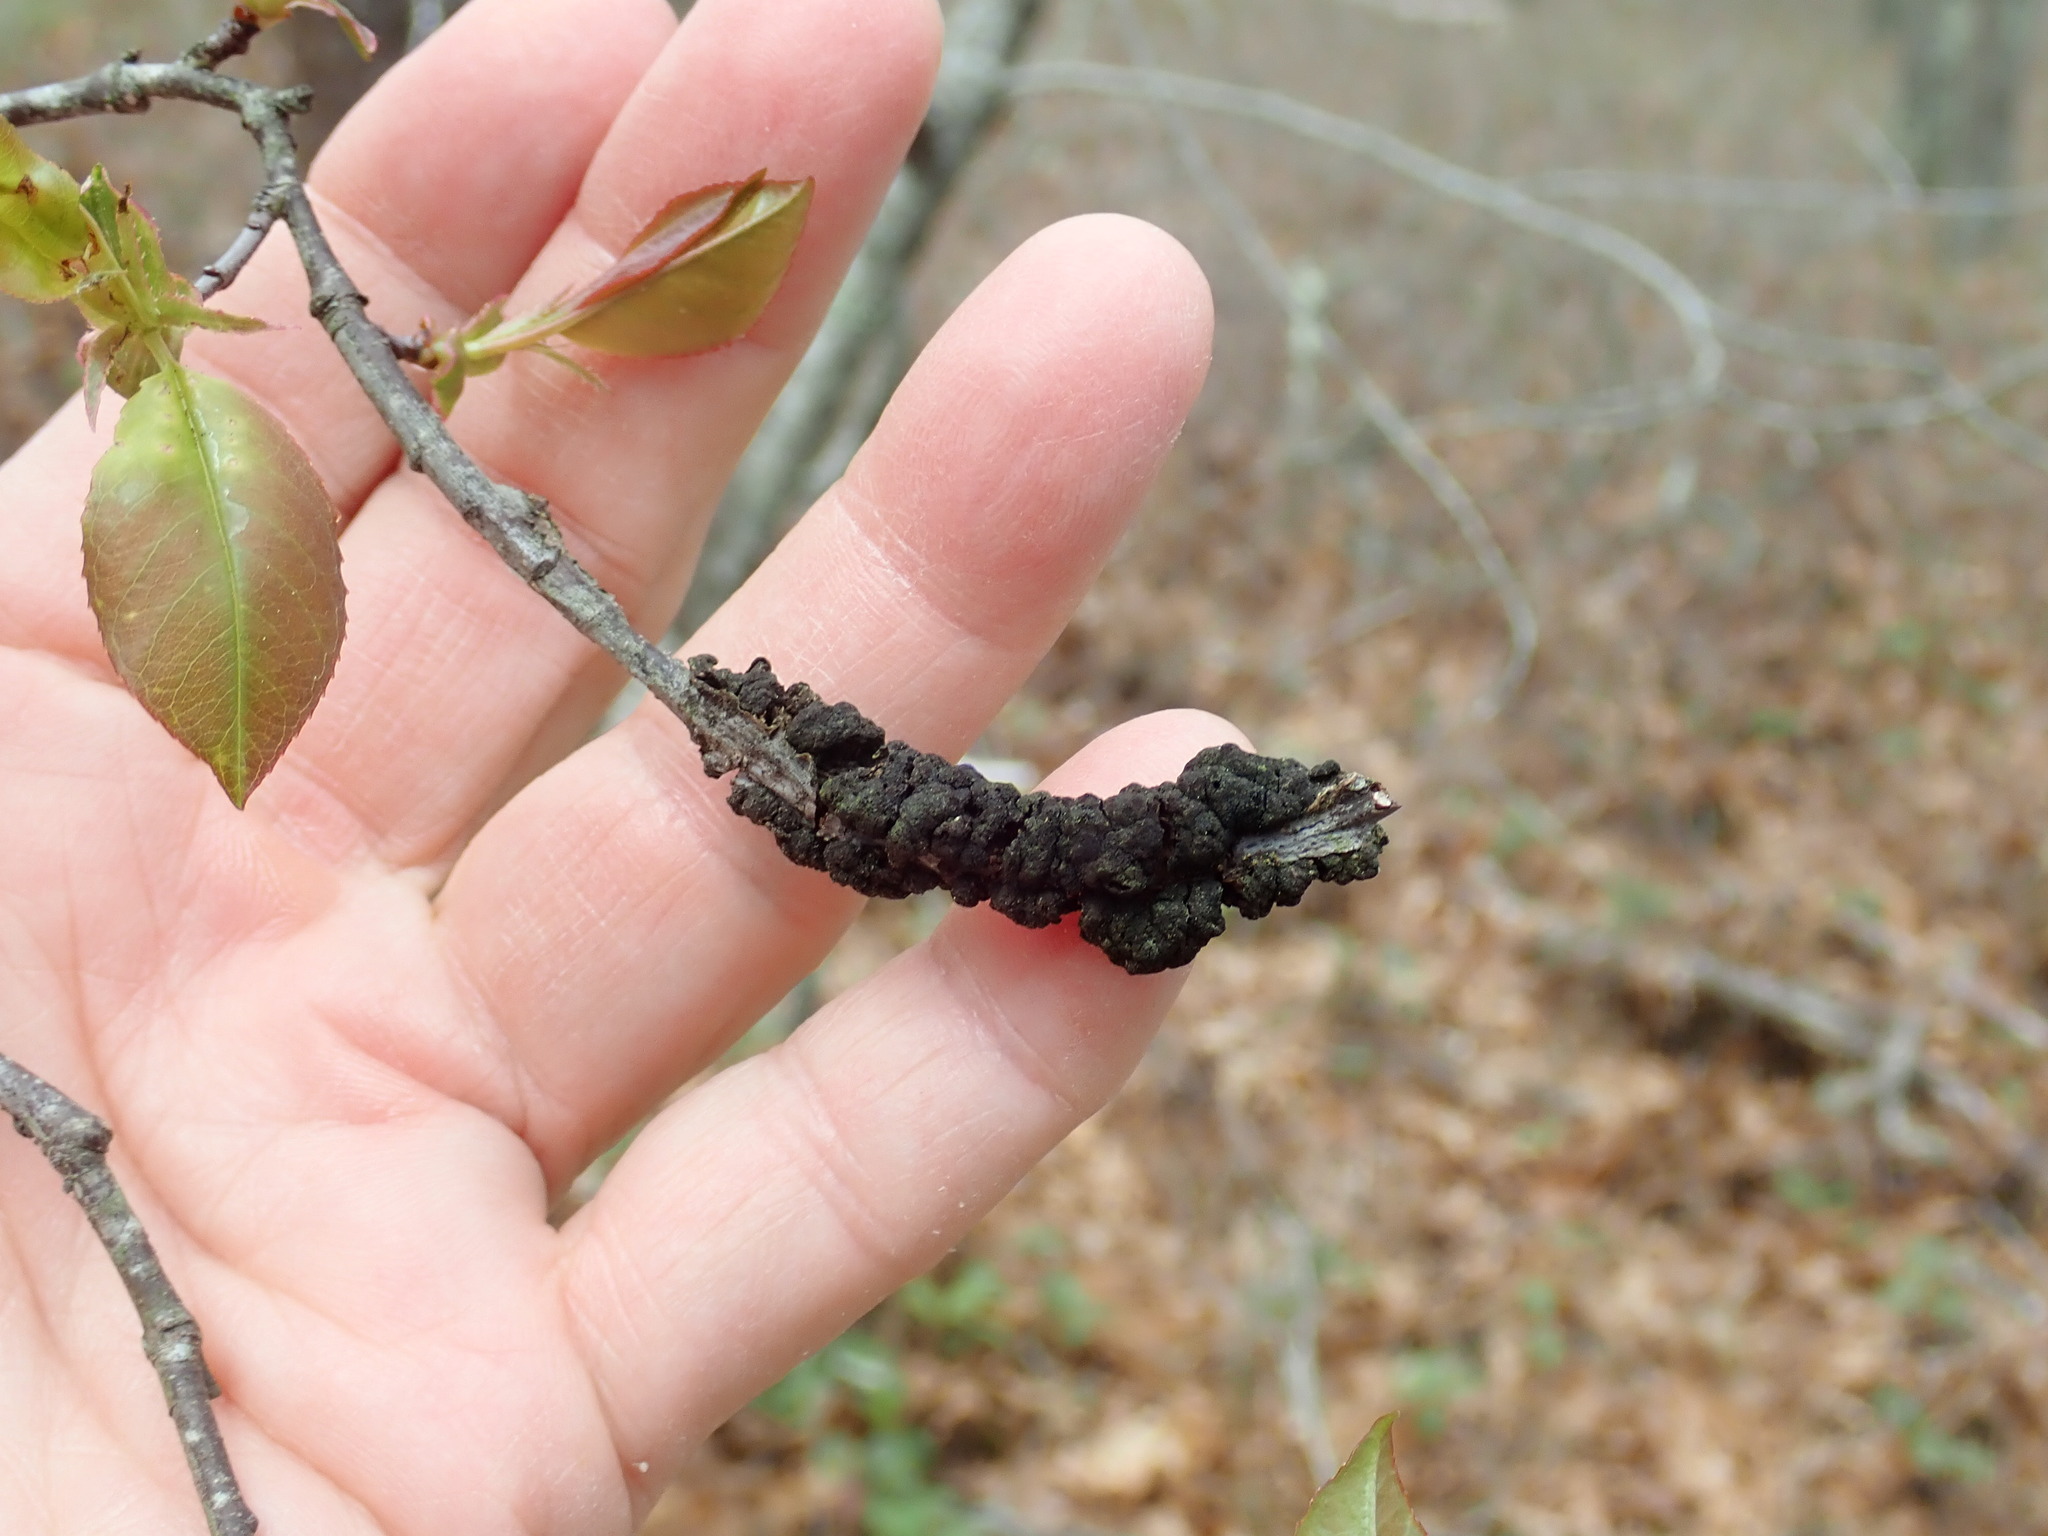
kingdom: Fungi
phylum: Ascomycota
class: Dothideomycetes
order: Venturiales
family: Venturiaceae
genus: Apiosporina
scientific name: Apiosporina morbosa
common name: Black knot
